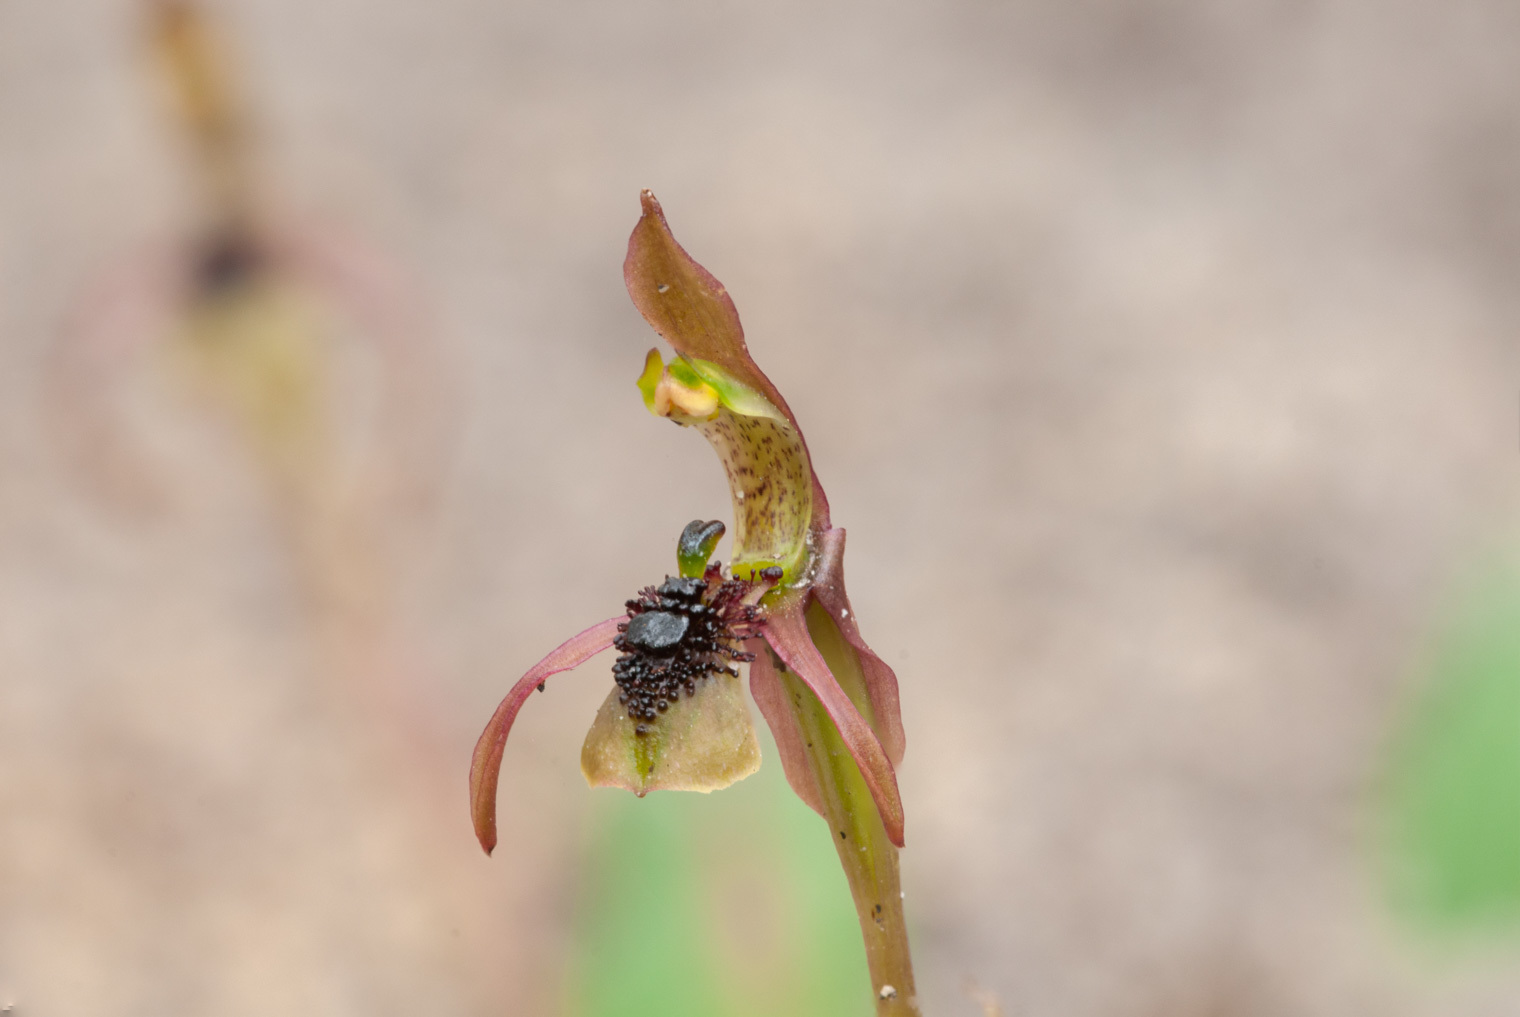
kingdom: Plantae
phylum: Tracheophyta
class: Liliopsida
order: Asparagales
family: Orchidaceae
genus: Chiloglottis
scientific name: Chiloglottis seminuda
